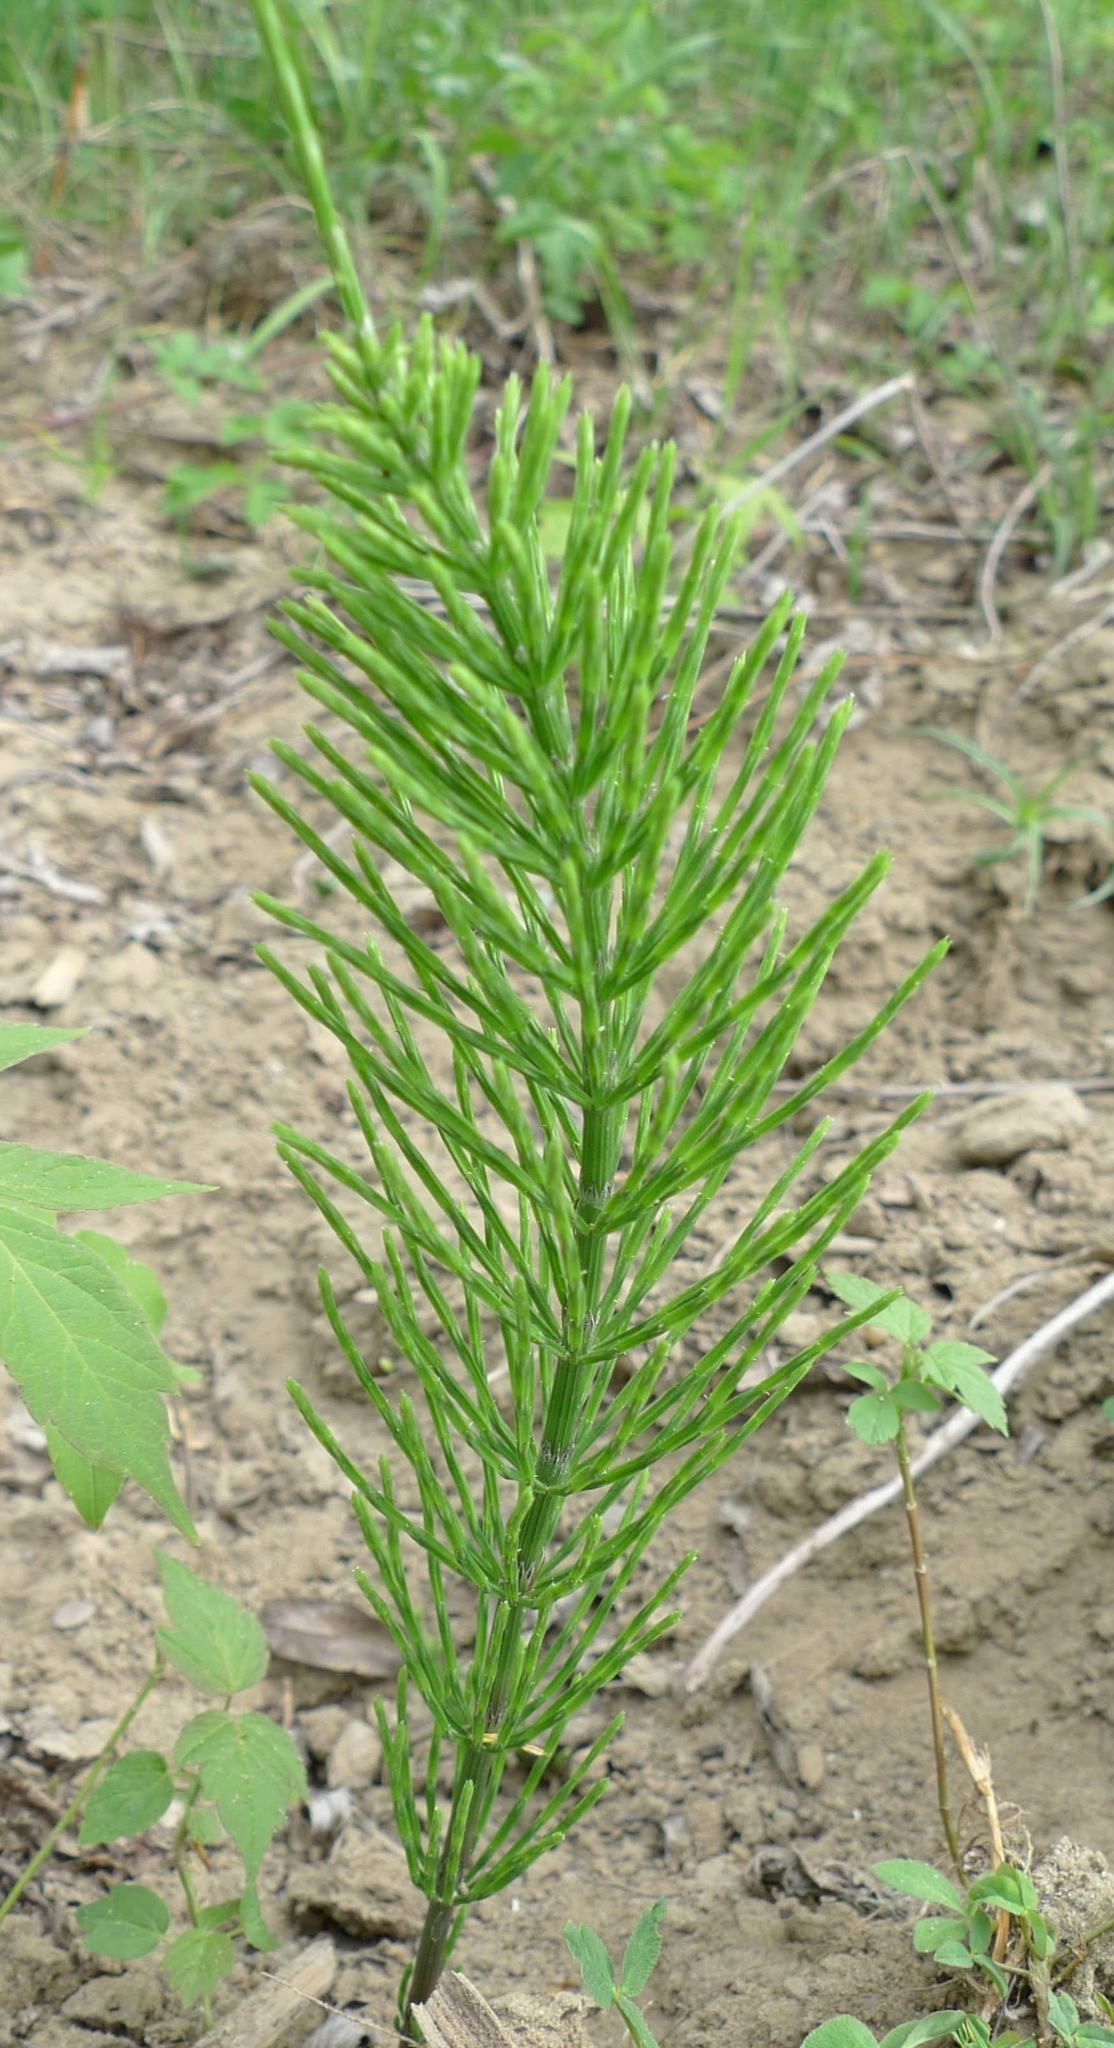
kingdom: Plantae
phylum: Tracheophyta
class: Polypodiopsida
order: Equisetales
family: Equisetaceae
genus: Equisetum
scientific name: Equisetum arvense
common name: Field horsetail
